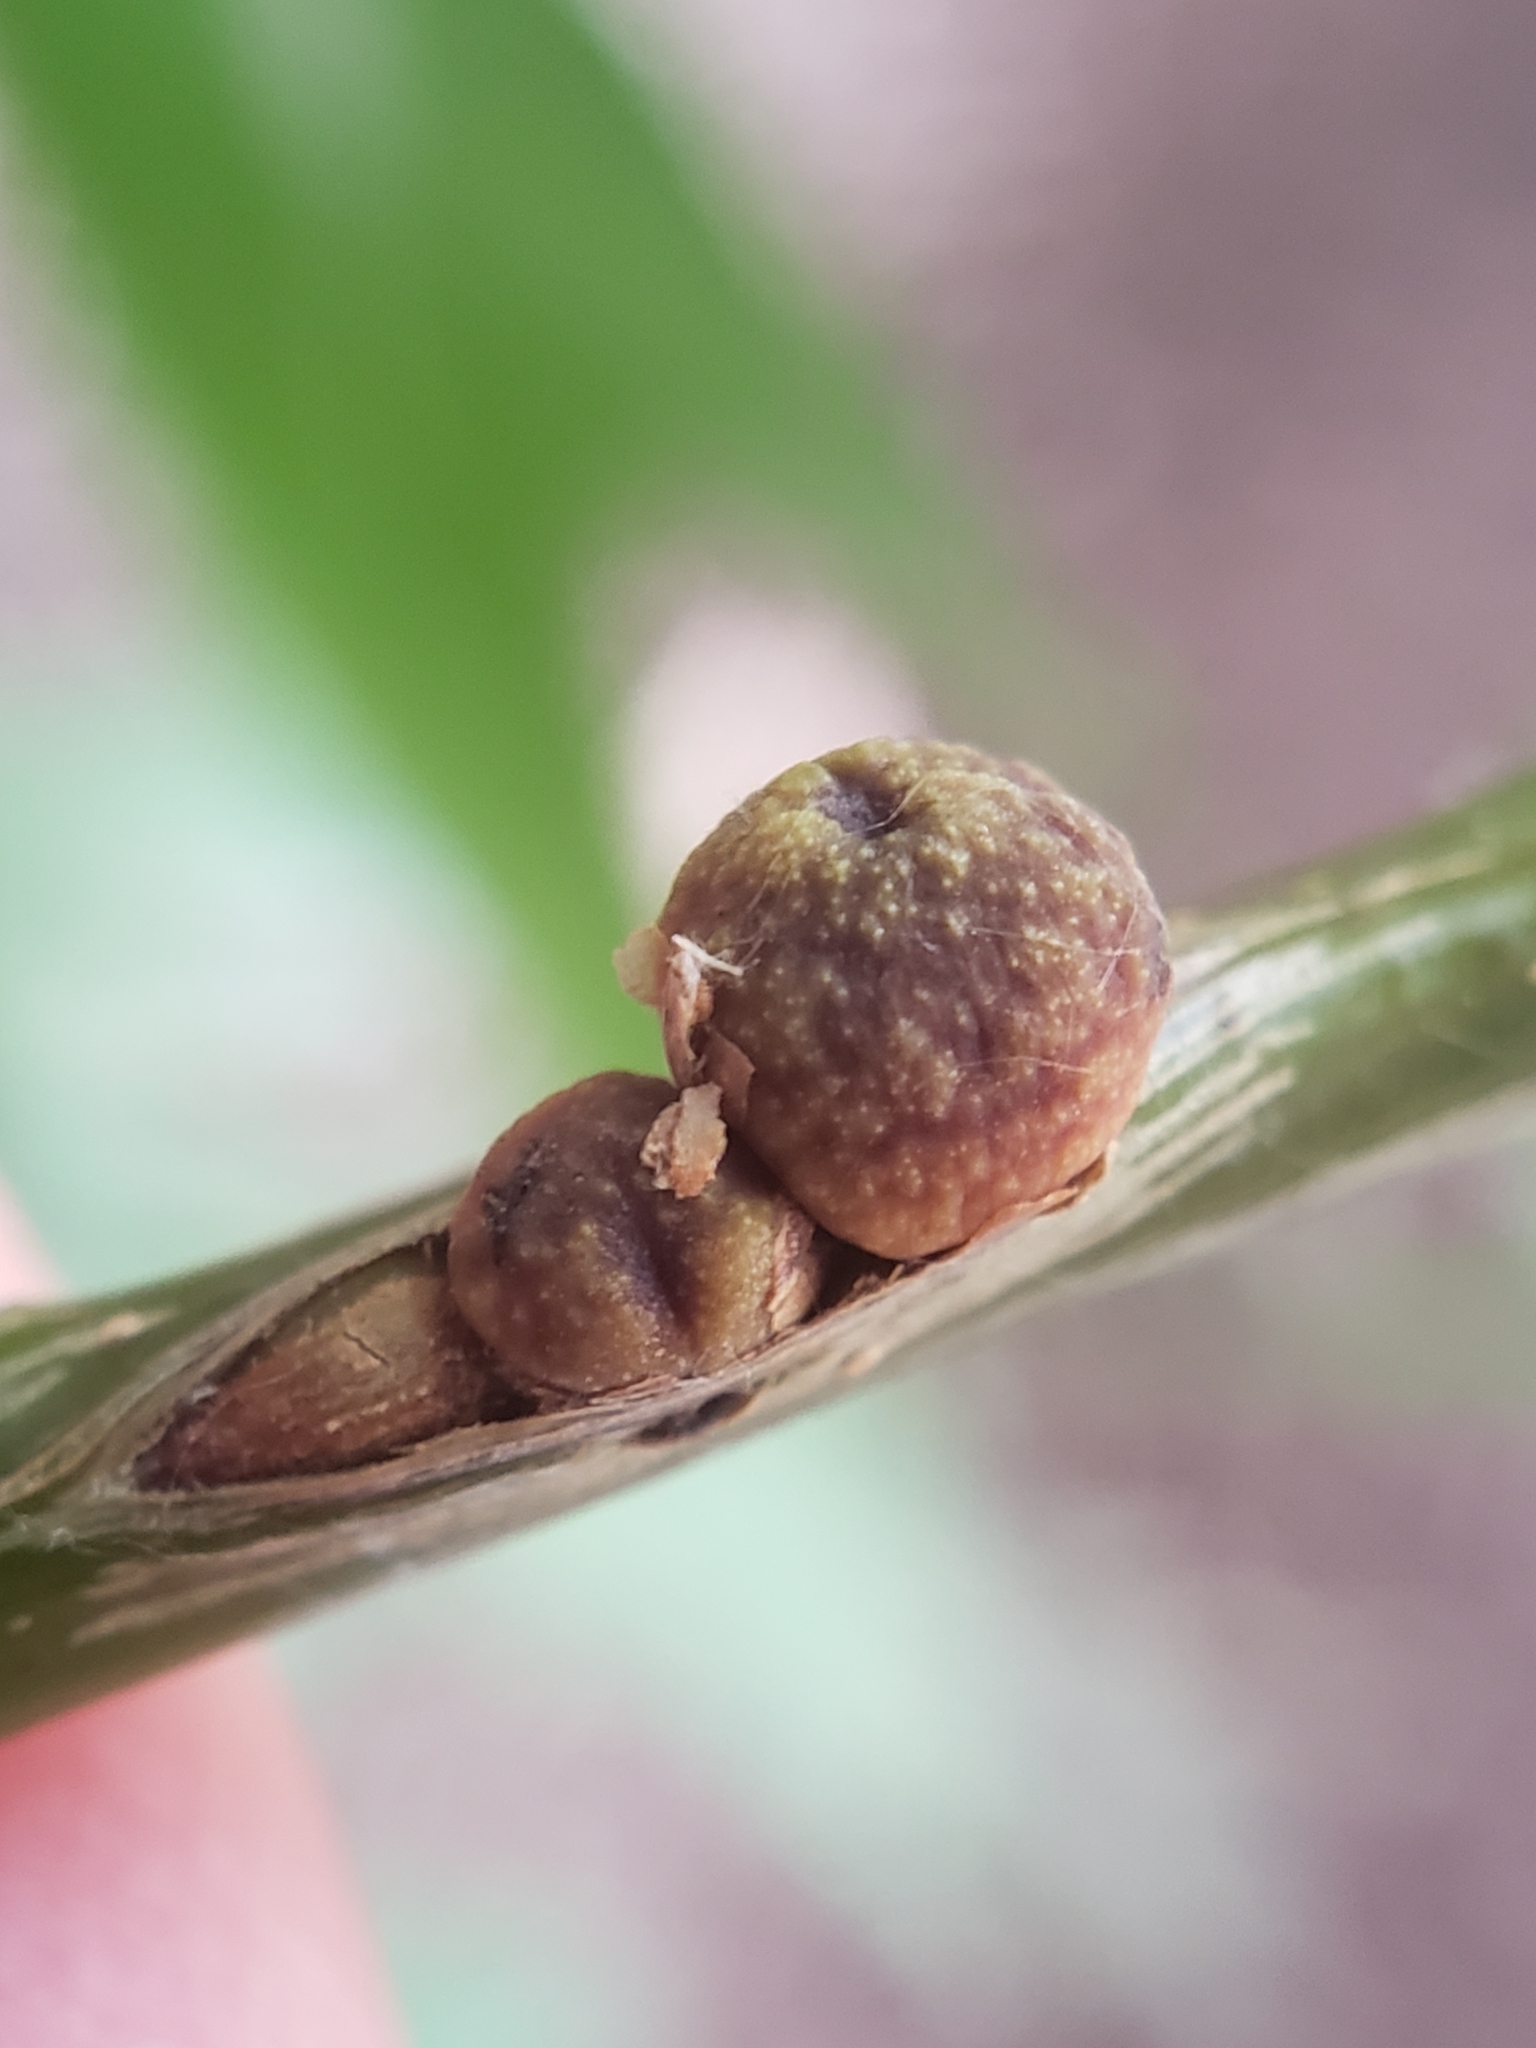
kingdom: Animalia
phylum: Arthropoda
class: Insecta
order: Hymenoptera
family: Cynipidae
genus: Kokkocynips
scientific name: Kokkocynips imbricariae
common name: Banded bullet gall wasp
